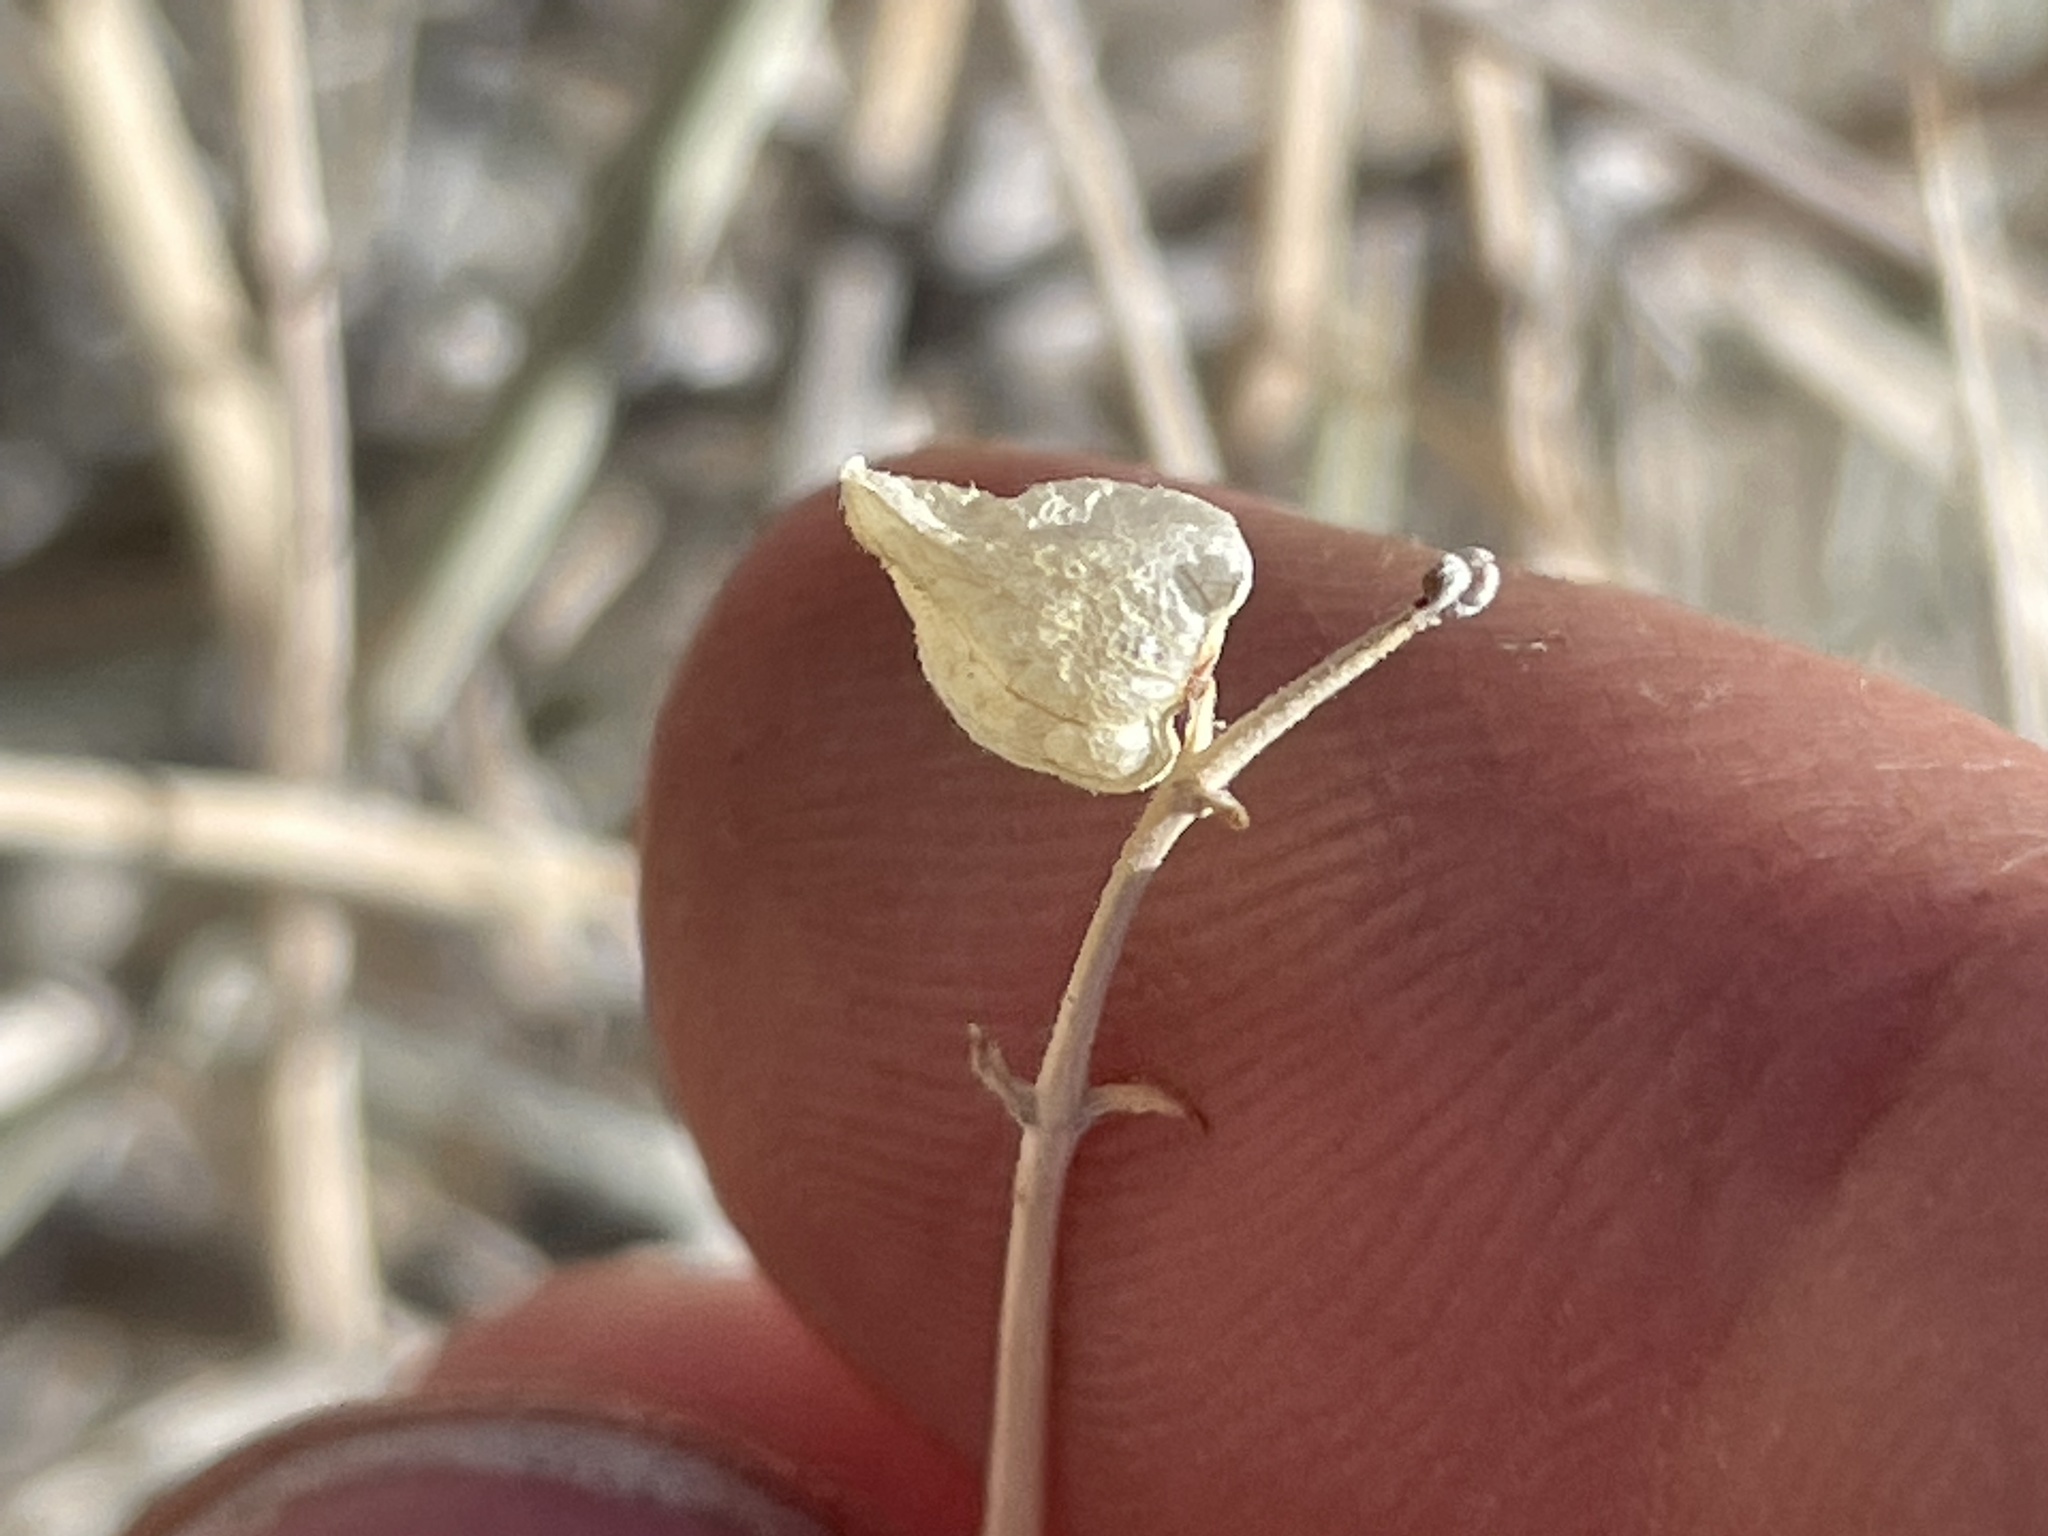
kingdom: Plantae
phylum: Tracheophyta
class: Magnoliopsida
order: Lamiales
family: Lamiaceae
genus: Scutellaria
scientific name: Scutellaria mexicana
